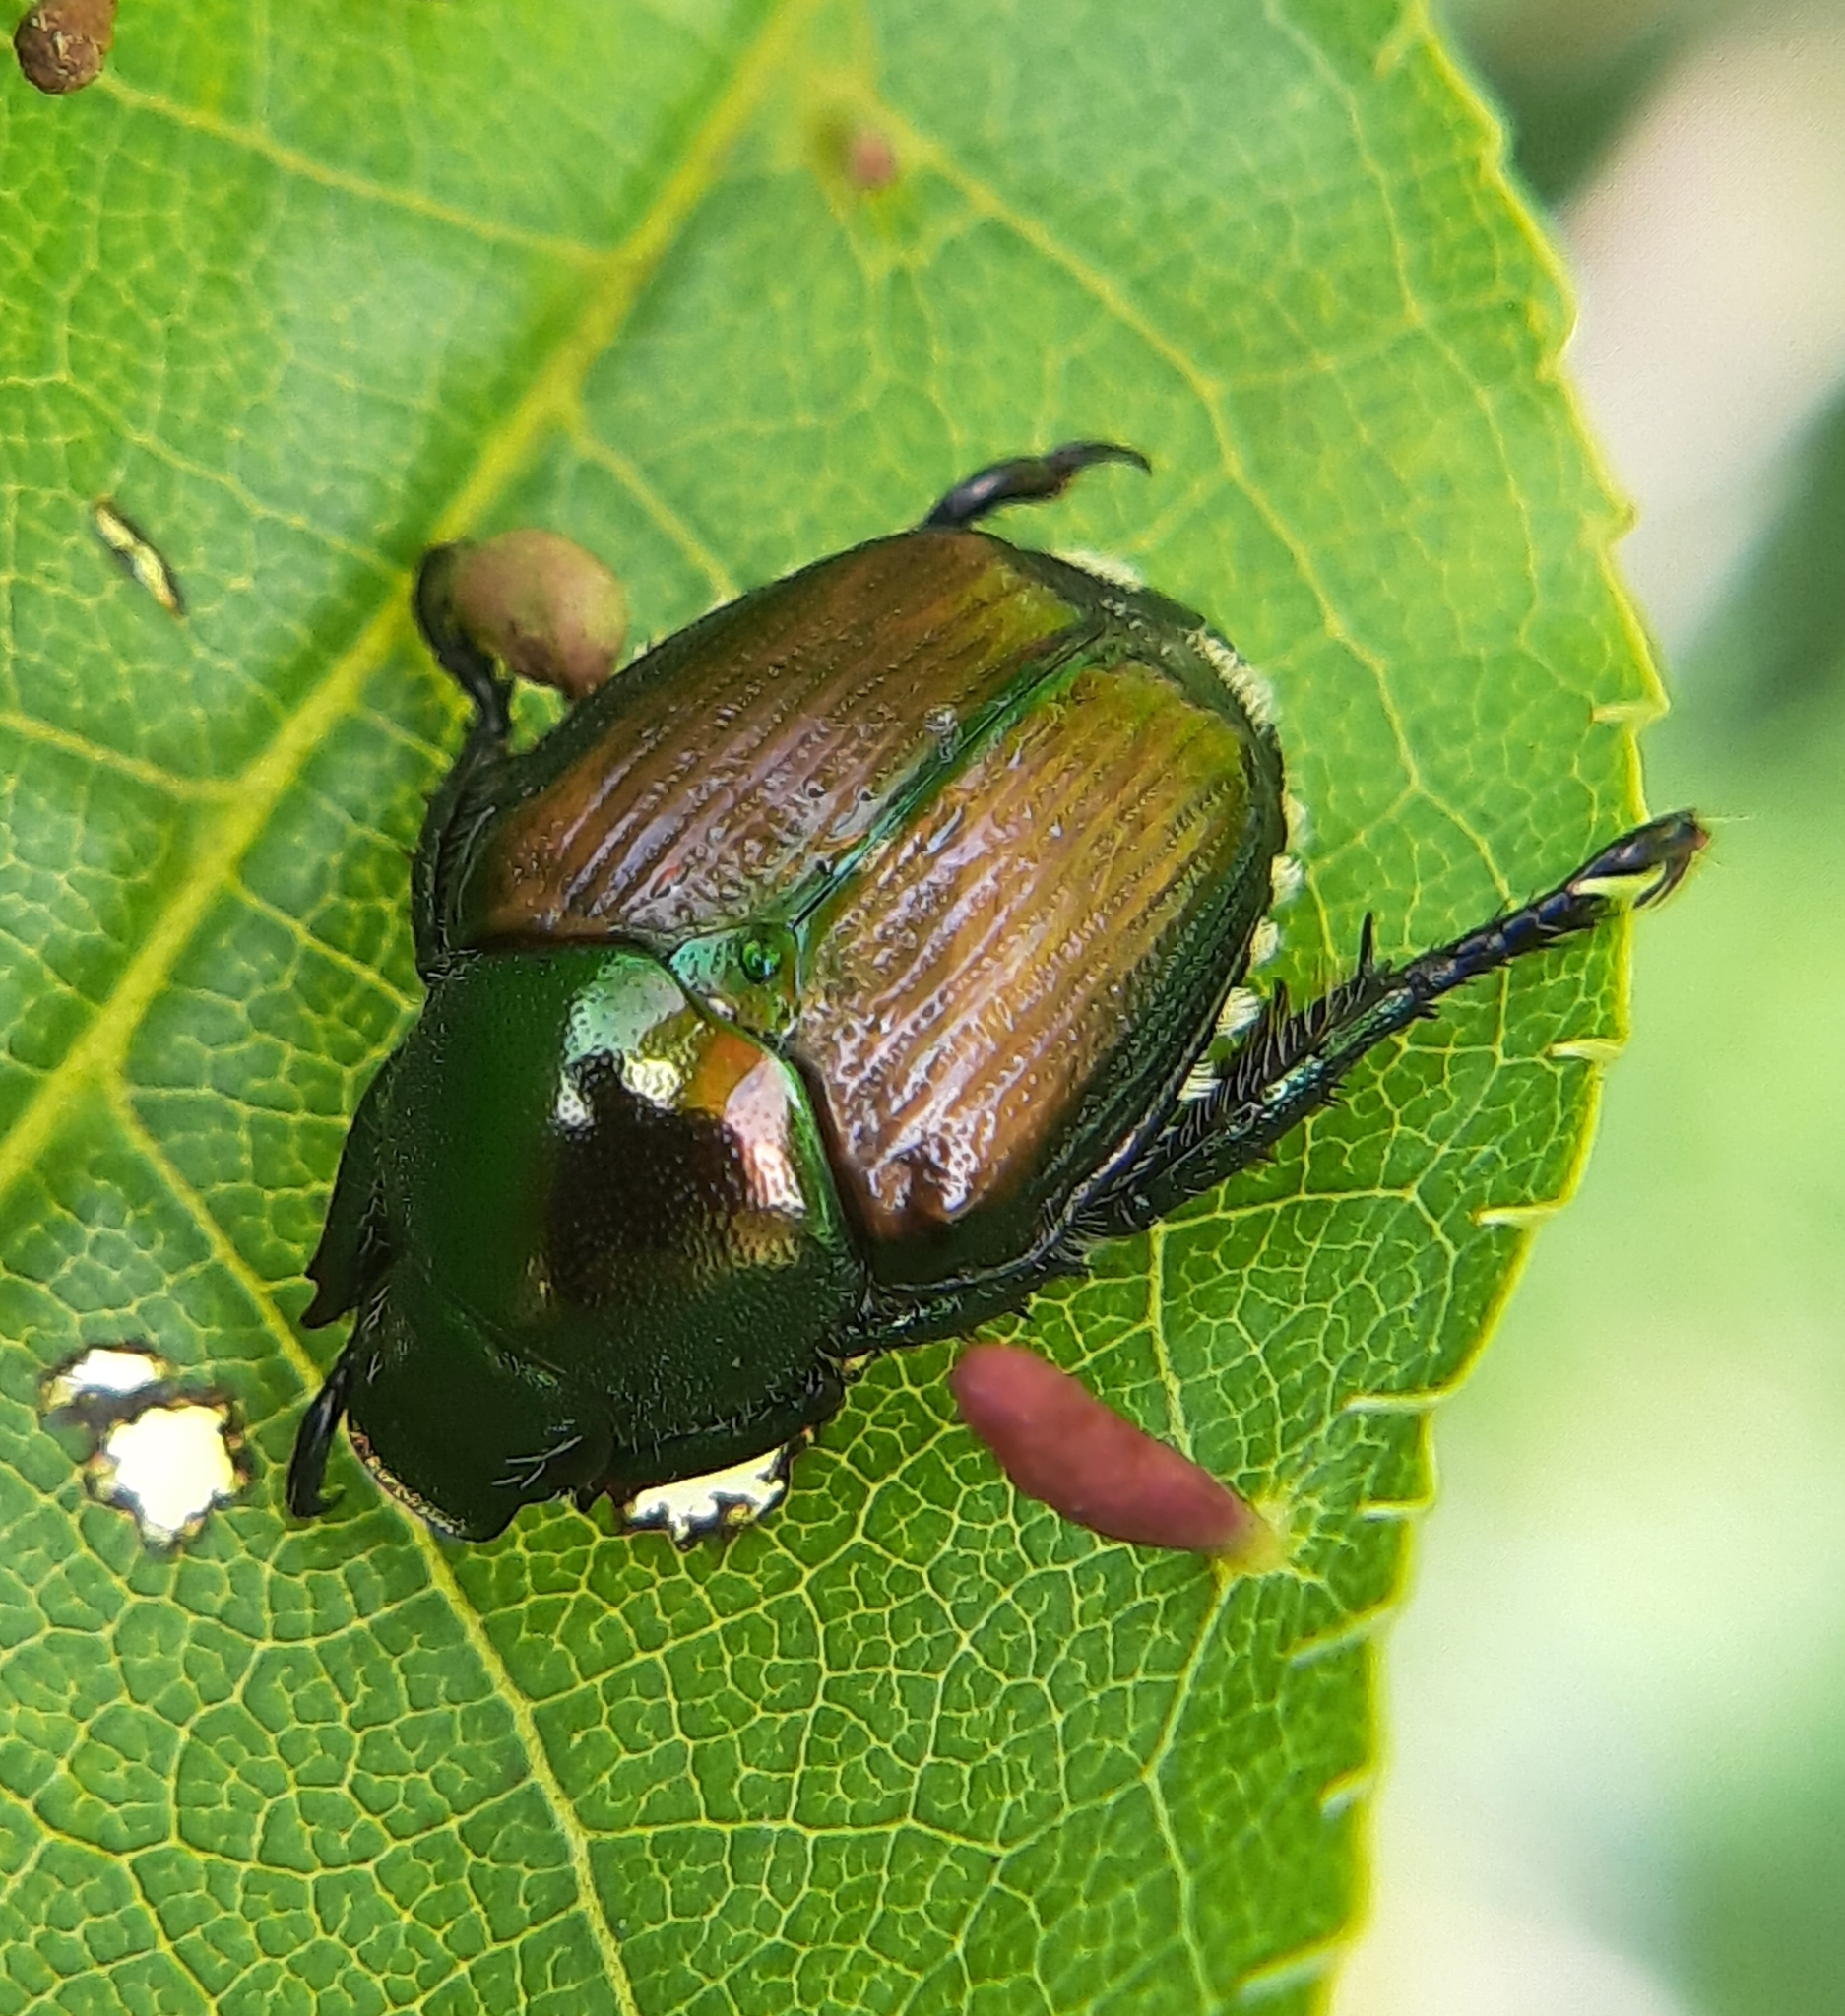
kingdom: Animalia
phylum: Arthropoda
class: Insecta
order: Coleoptera
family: Scarabaeidae
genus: Popillia
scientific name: Popillia japonica
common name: Japanese beetle
